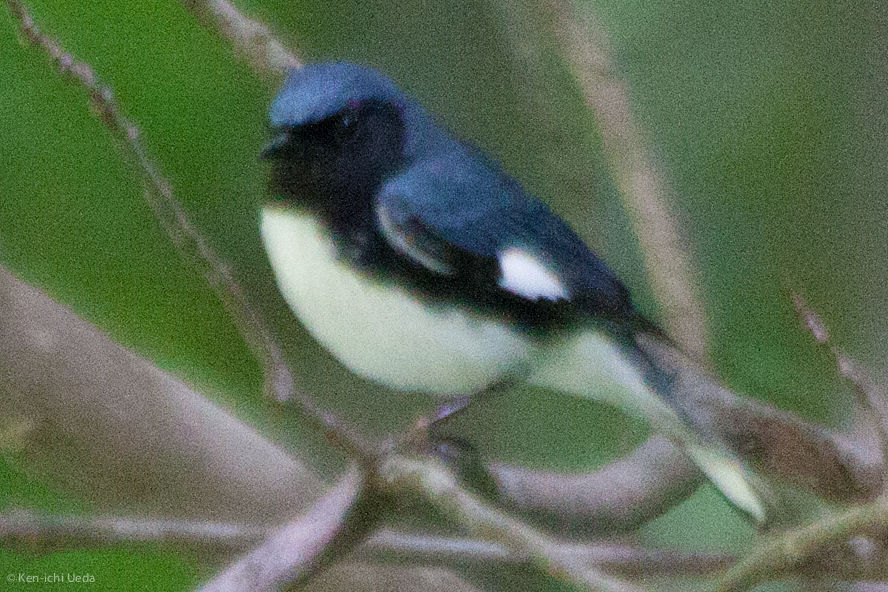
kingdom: Animalia
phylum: Chordata
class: Aves
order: Passeriformes
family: Parulidae
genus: Setophaga
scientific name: Setophaga caerulescens
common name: Black-throated blue warbler
